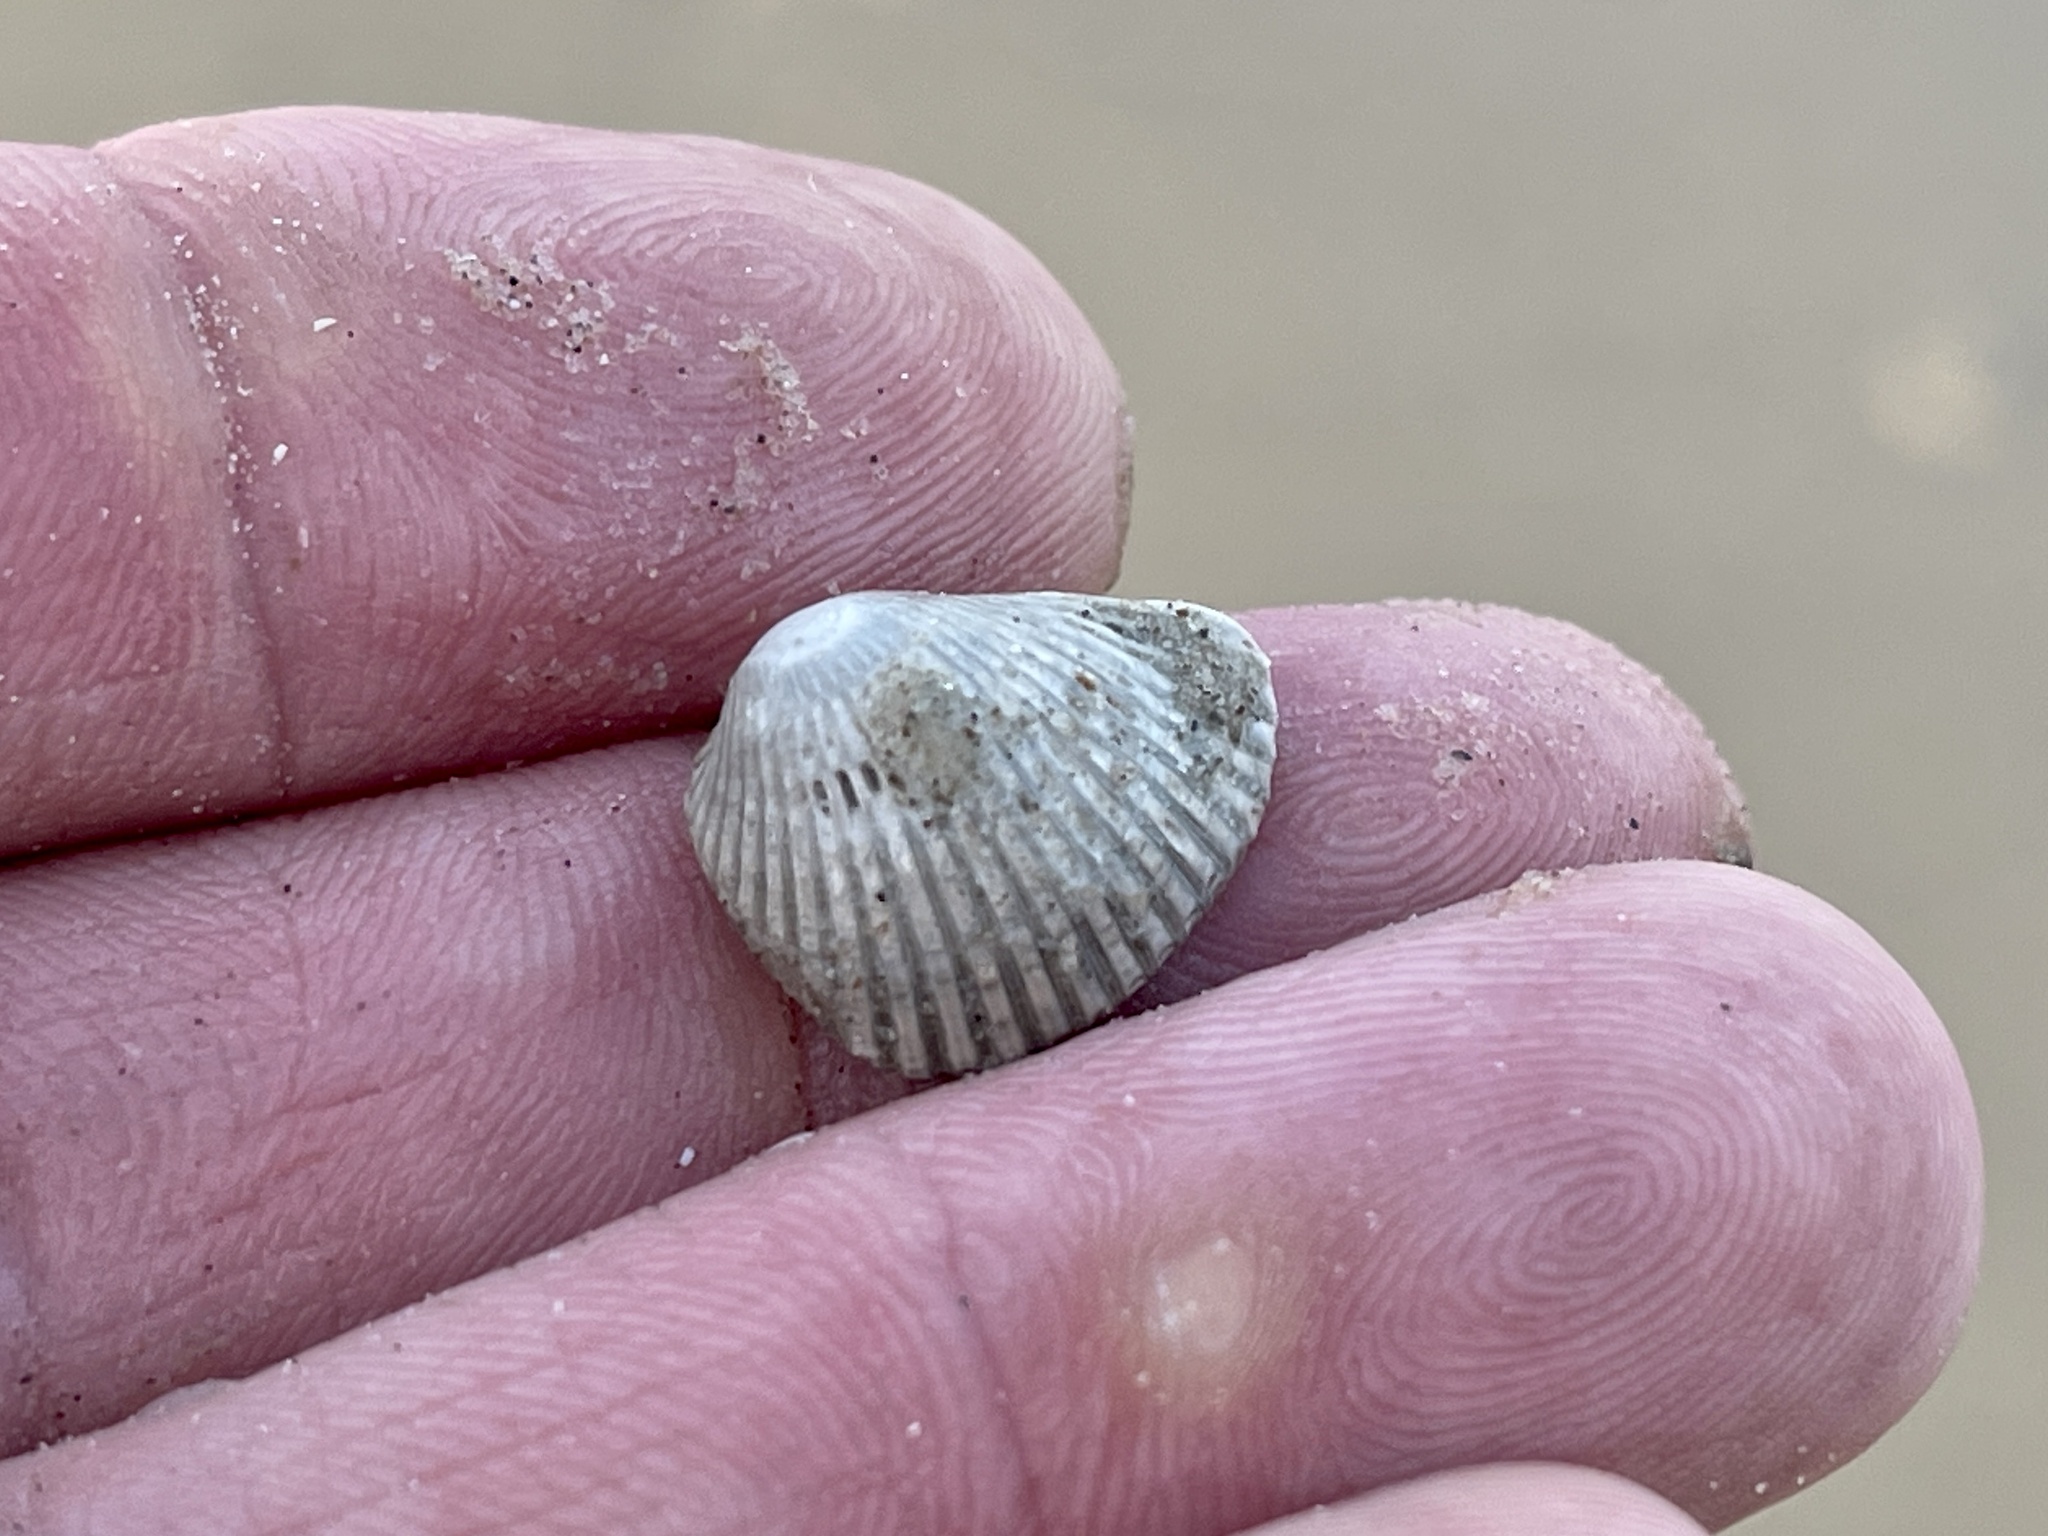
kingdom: Animalia
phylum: Mollusca
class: Bivalvia
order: Arcida
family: Arcidae
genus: Lunarca
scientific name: Lunarca ovalis
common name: Blood ark
